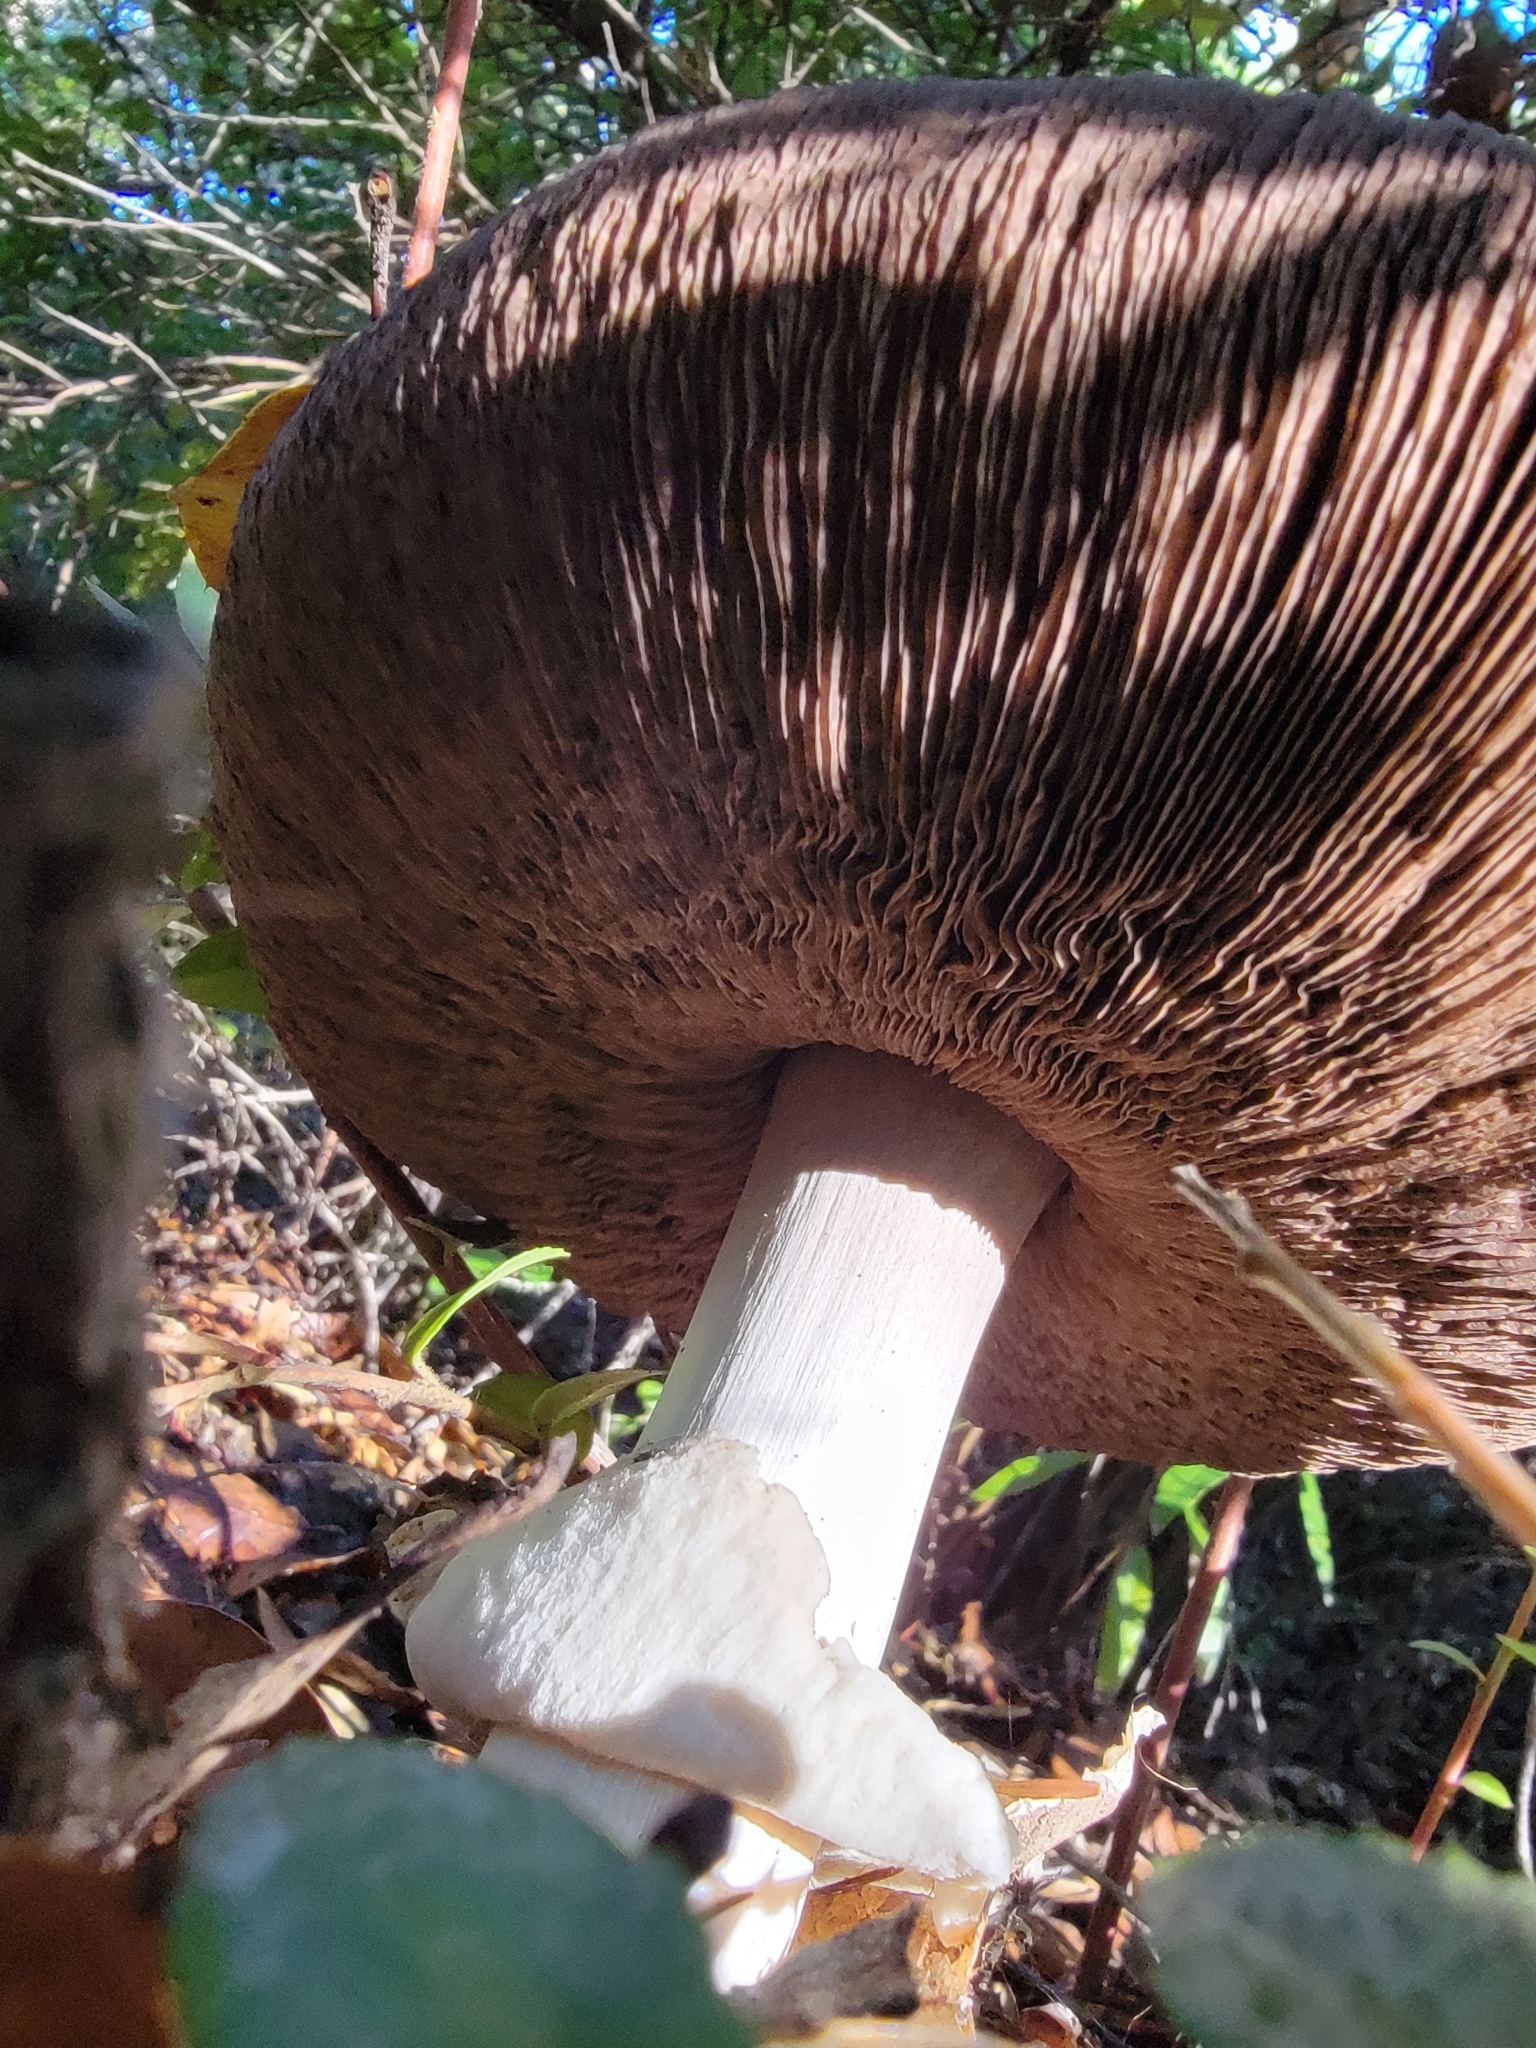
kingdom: Fungi
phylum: Basidiomycota
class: Agaricomycetes
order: Agaricales
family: Agaricaceae
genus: Agaricus
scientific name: Agaricus hondensis
